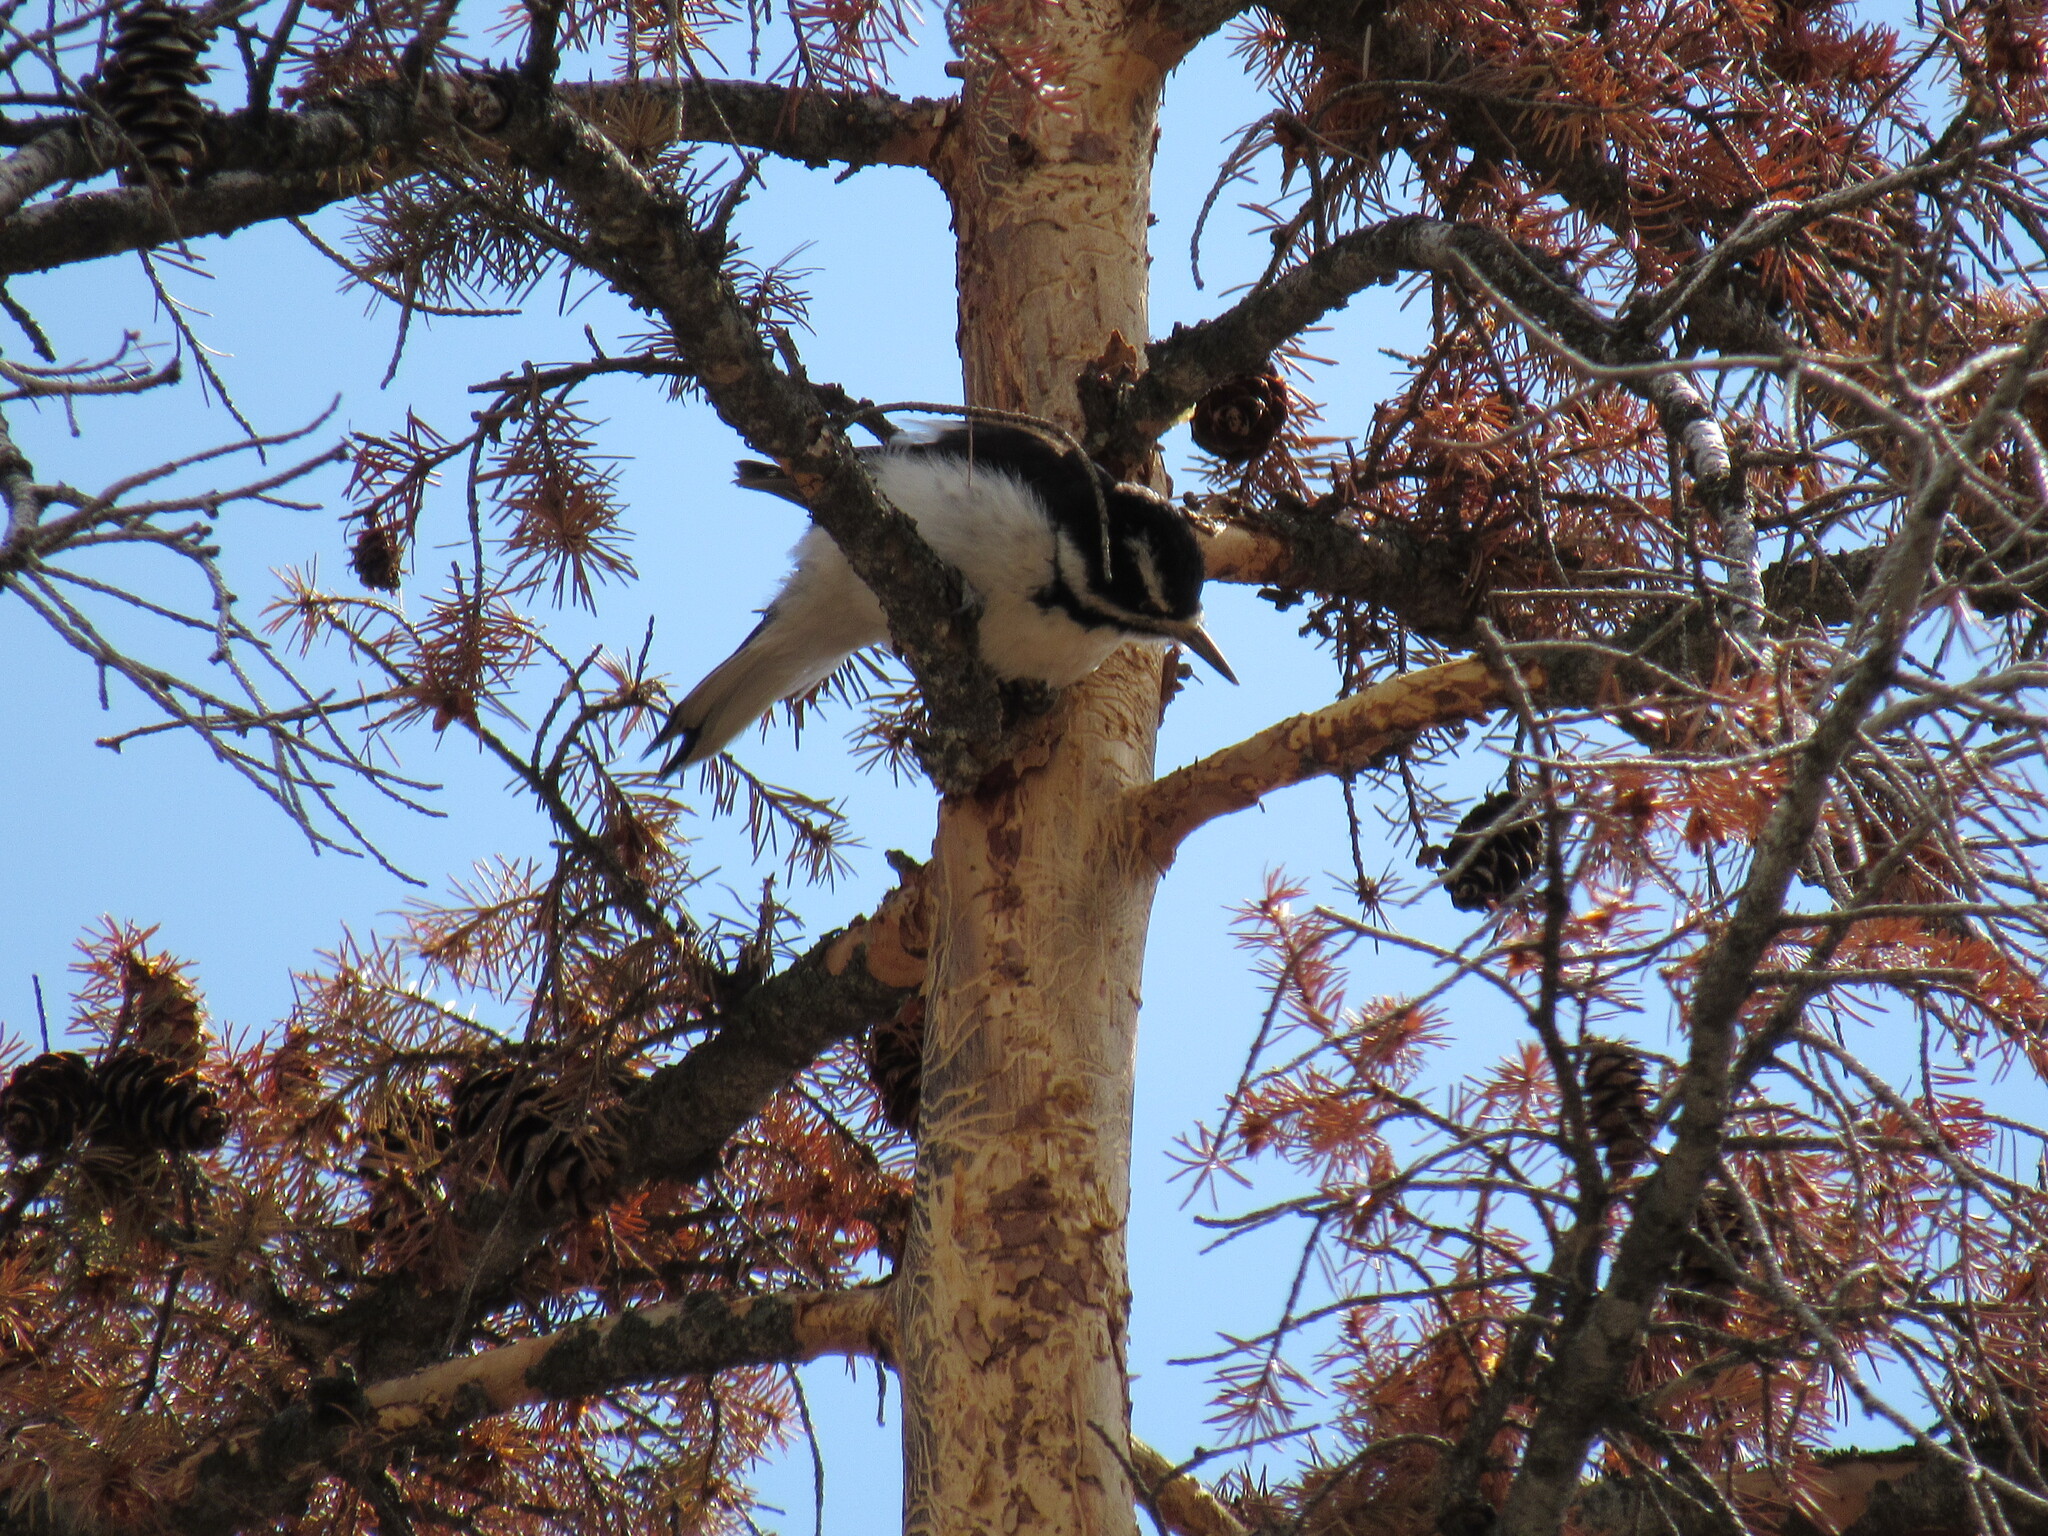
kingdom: Animalia
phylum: Chordata
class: Aves
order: Piciformes
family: Picidae
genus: Leuconotopicus
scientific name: Leuconotopicus villosus
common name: Hairy woodpecker
